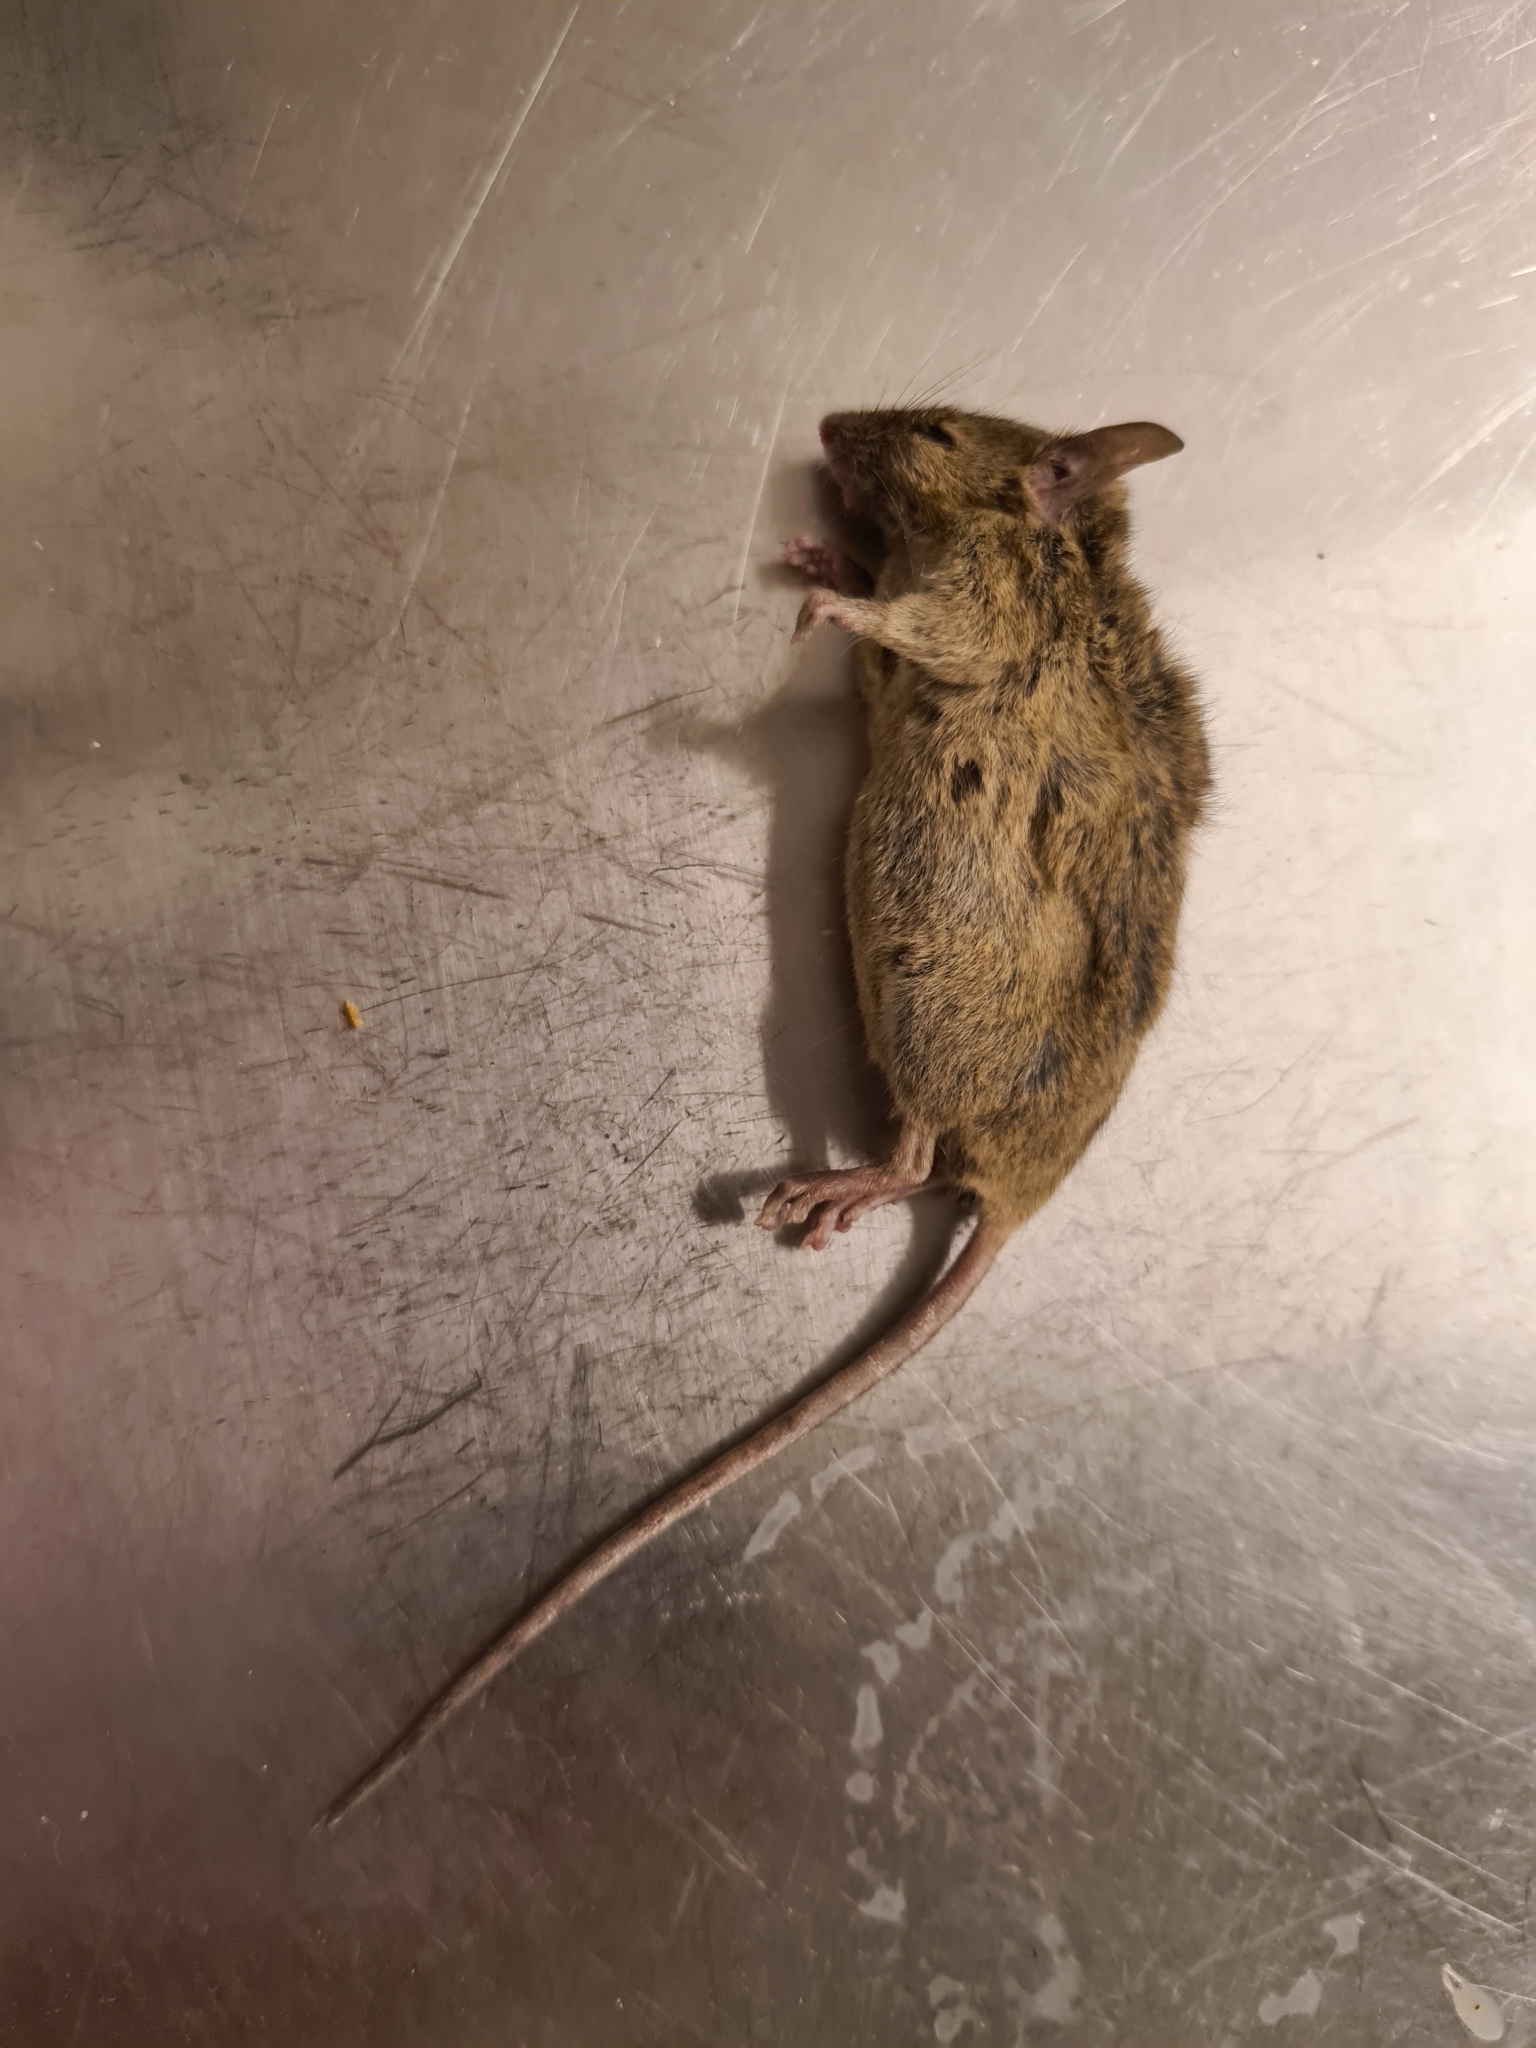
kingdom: Animalia
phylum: Chordata
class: Mammalia
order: Rodentia
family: Muridae
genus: Mus
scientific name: Mus musculus
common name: House mouse
